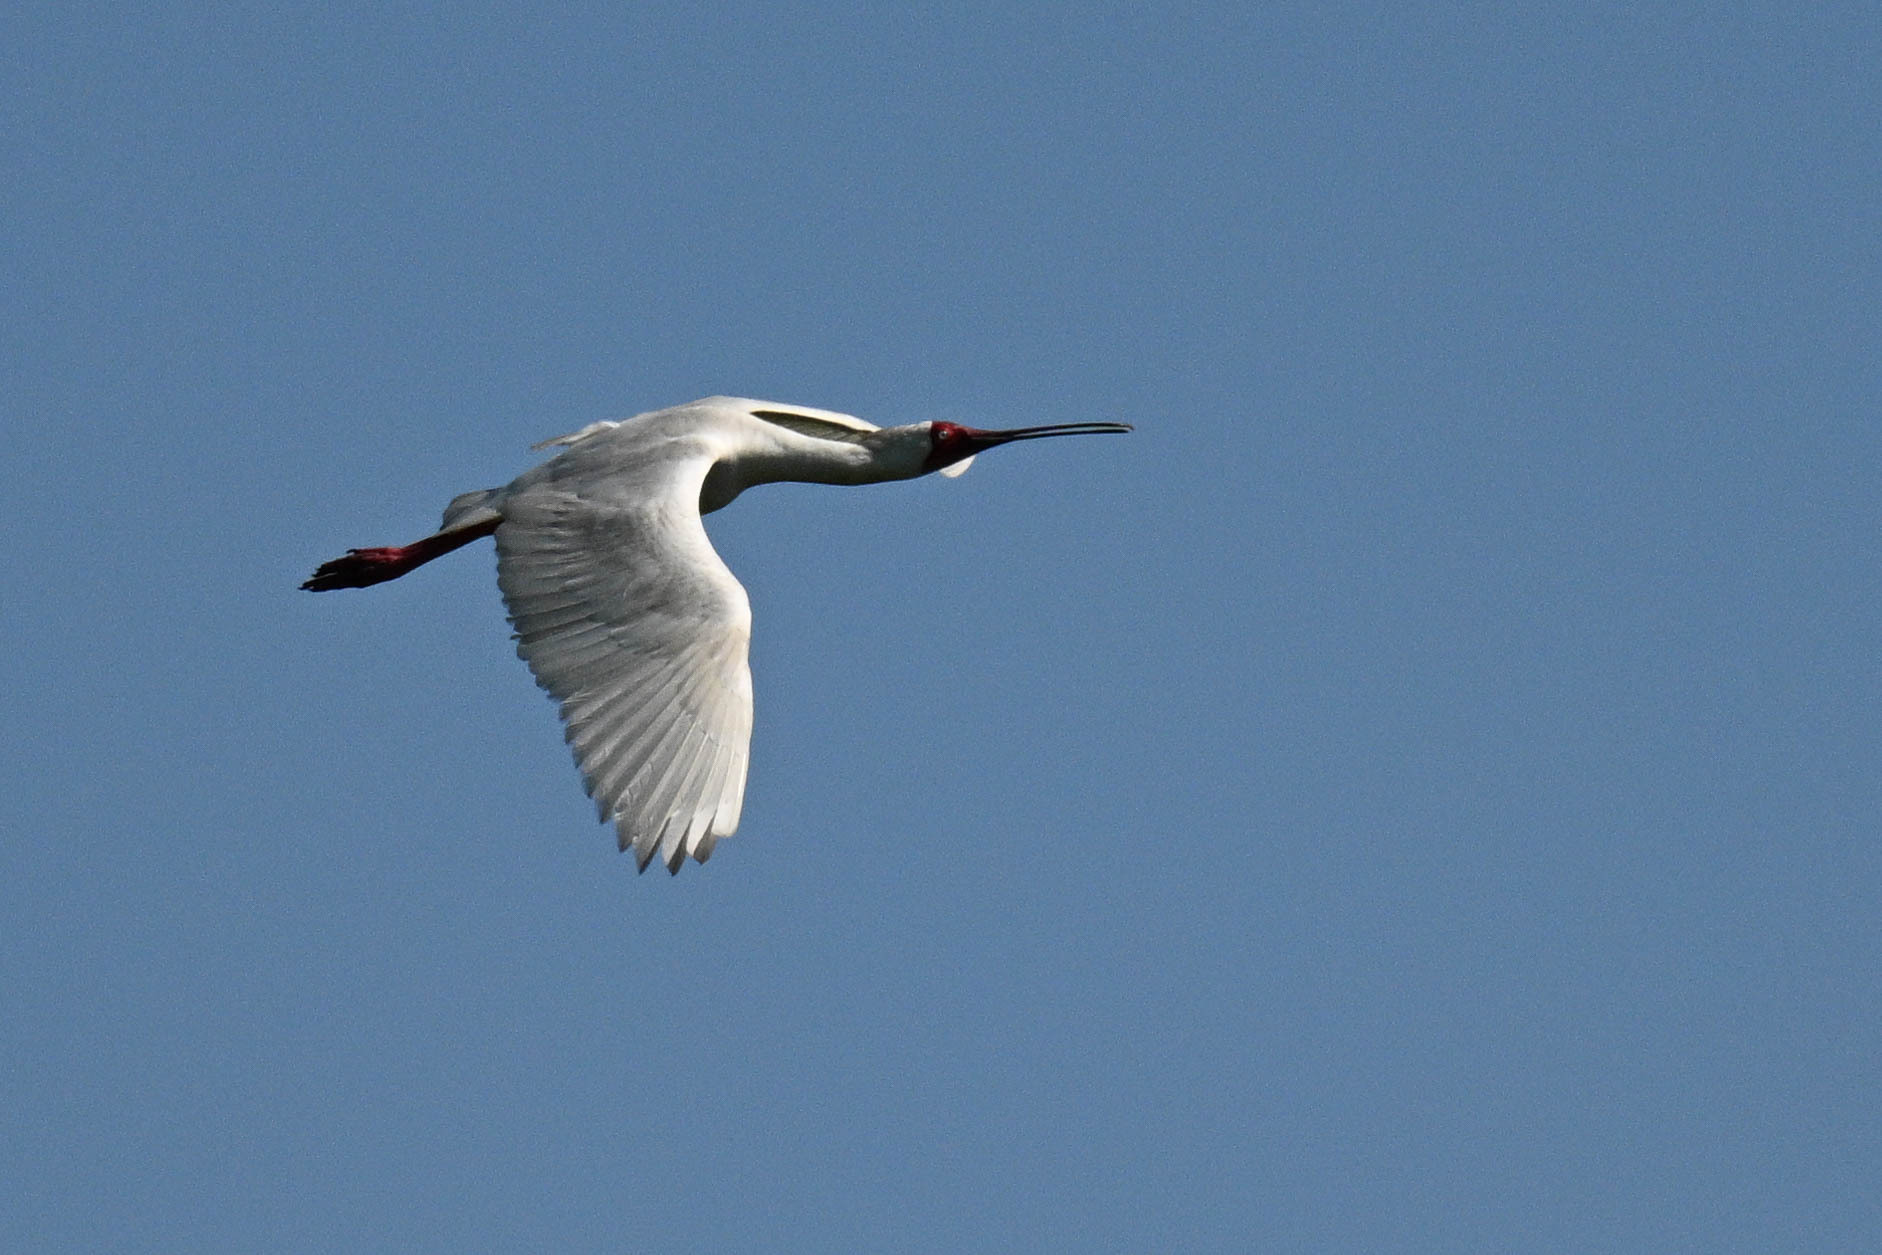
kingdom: Animalia
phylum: Chordata
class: Aves
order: Pelecaniformes
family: Threskiornithidae
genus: Platalea
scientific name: Platalea alba
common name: African spoonbill
